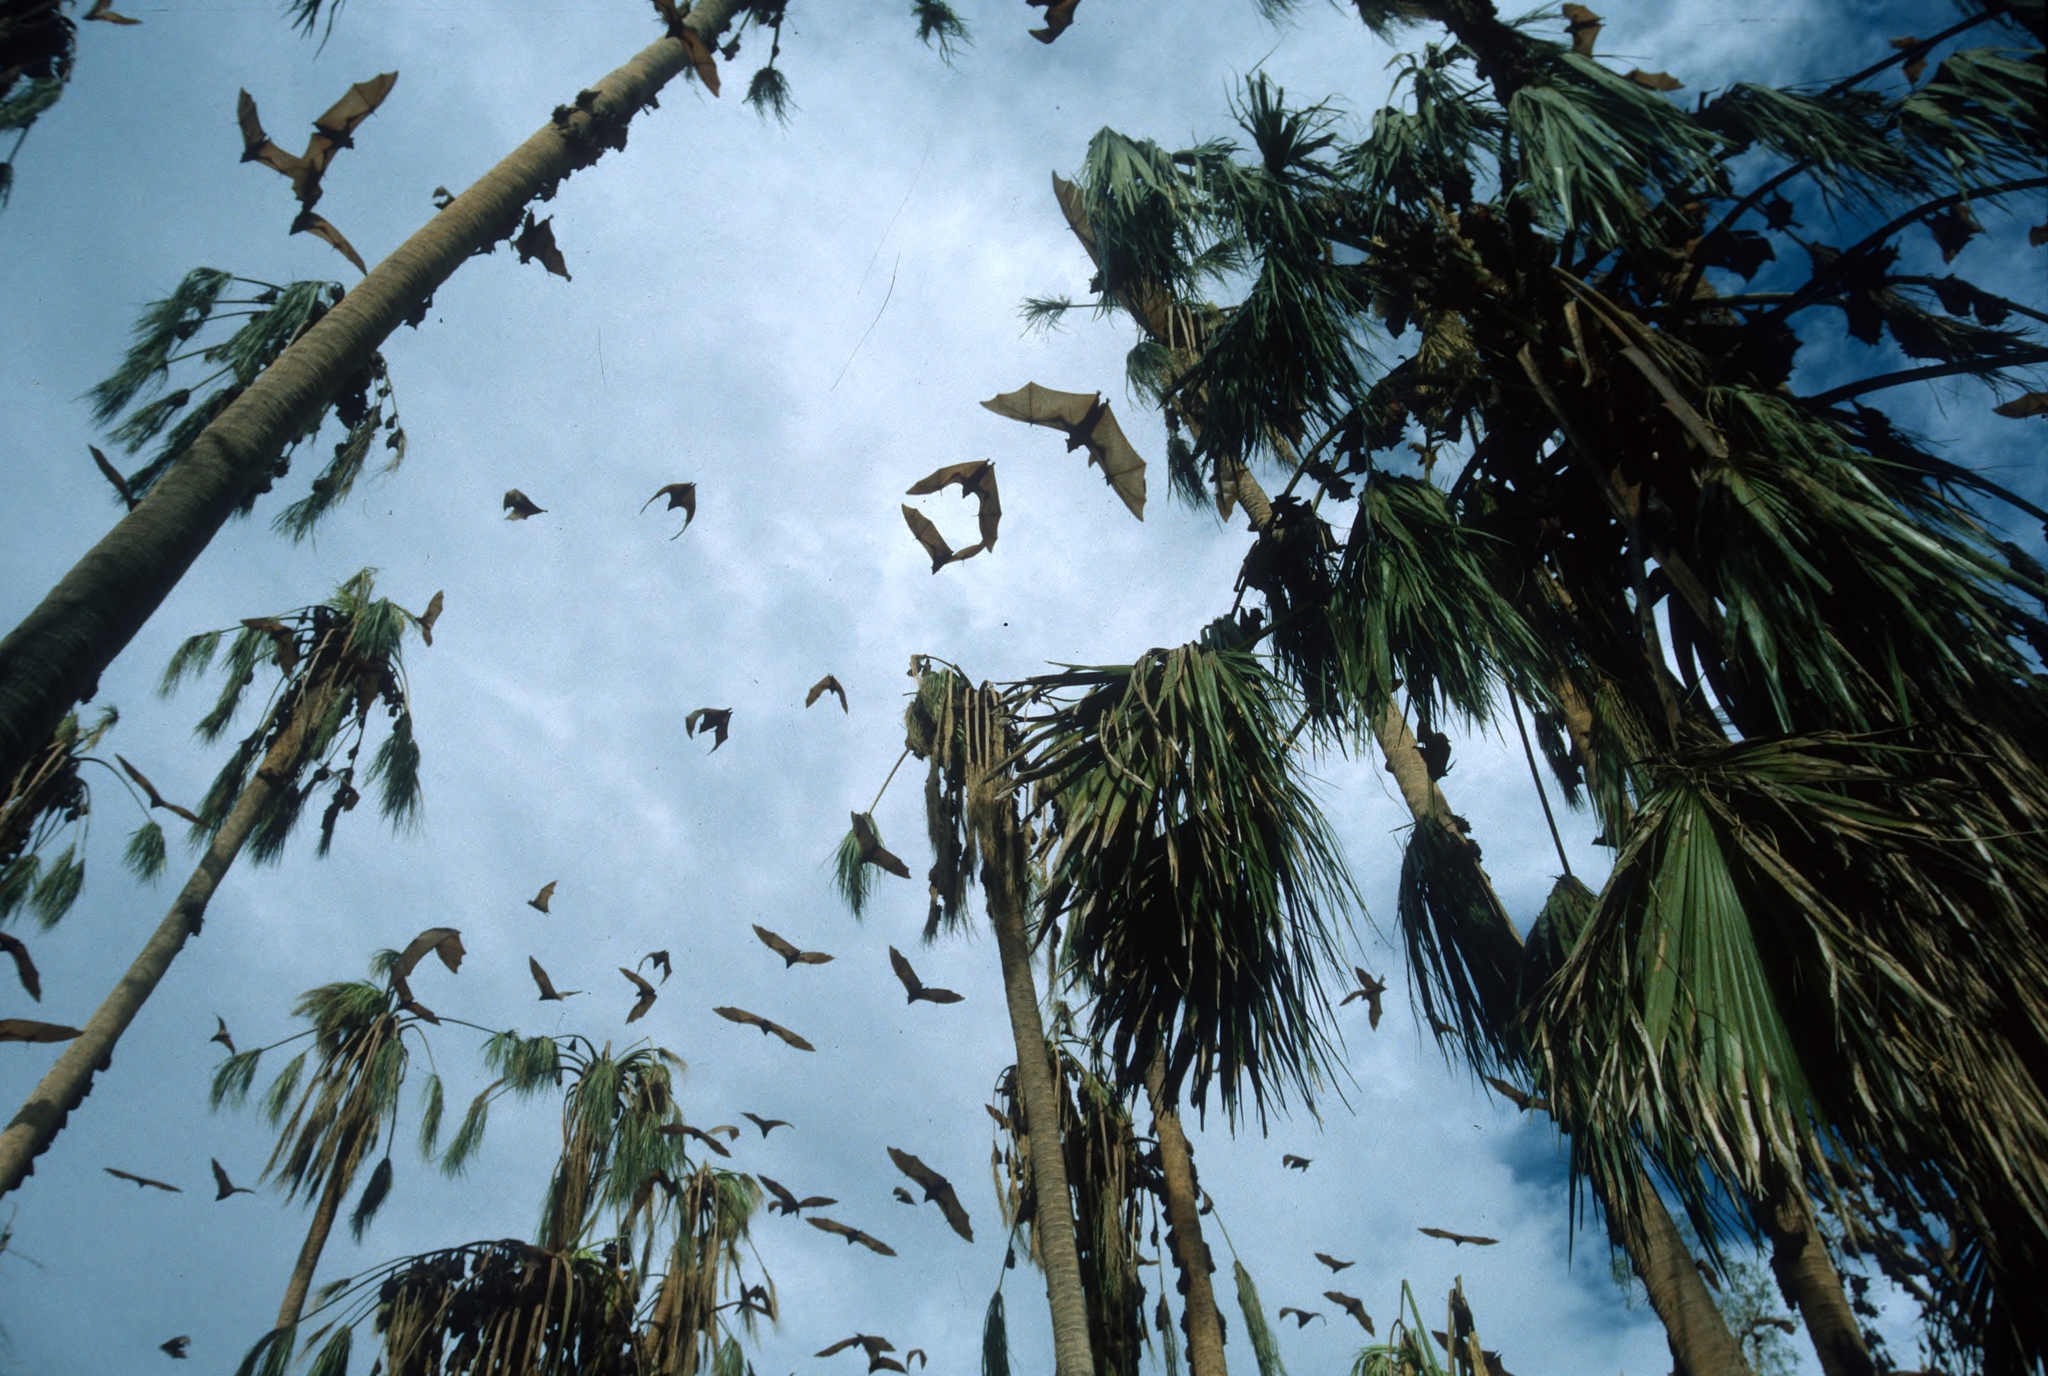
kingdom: Animalia
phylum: Chordata
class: Mammalia
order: Chiroptera
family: Pteropodidae
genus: Pteropus
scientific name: Pteropus scapulatus
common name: Little red flying fox
